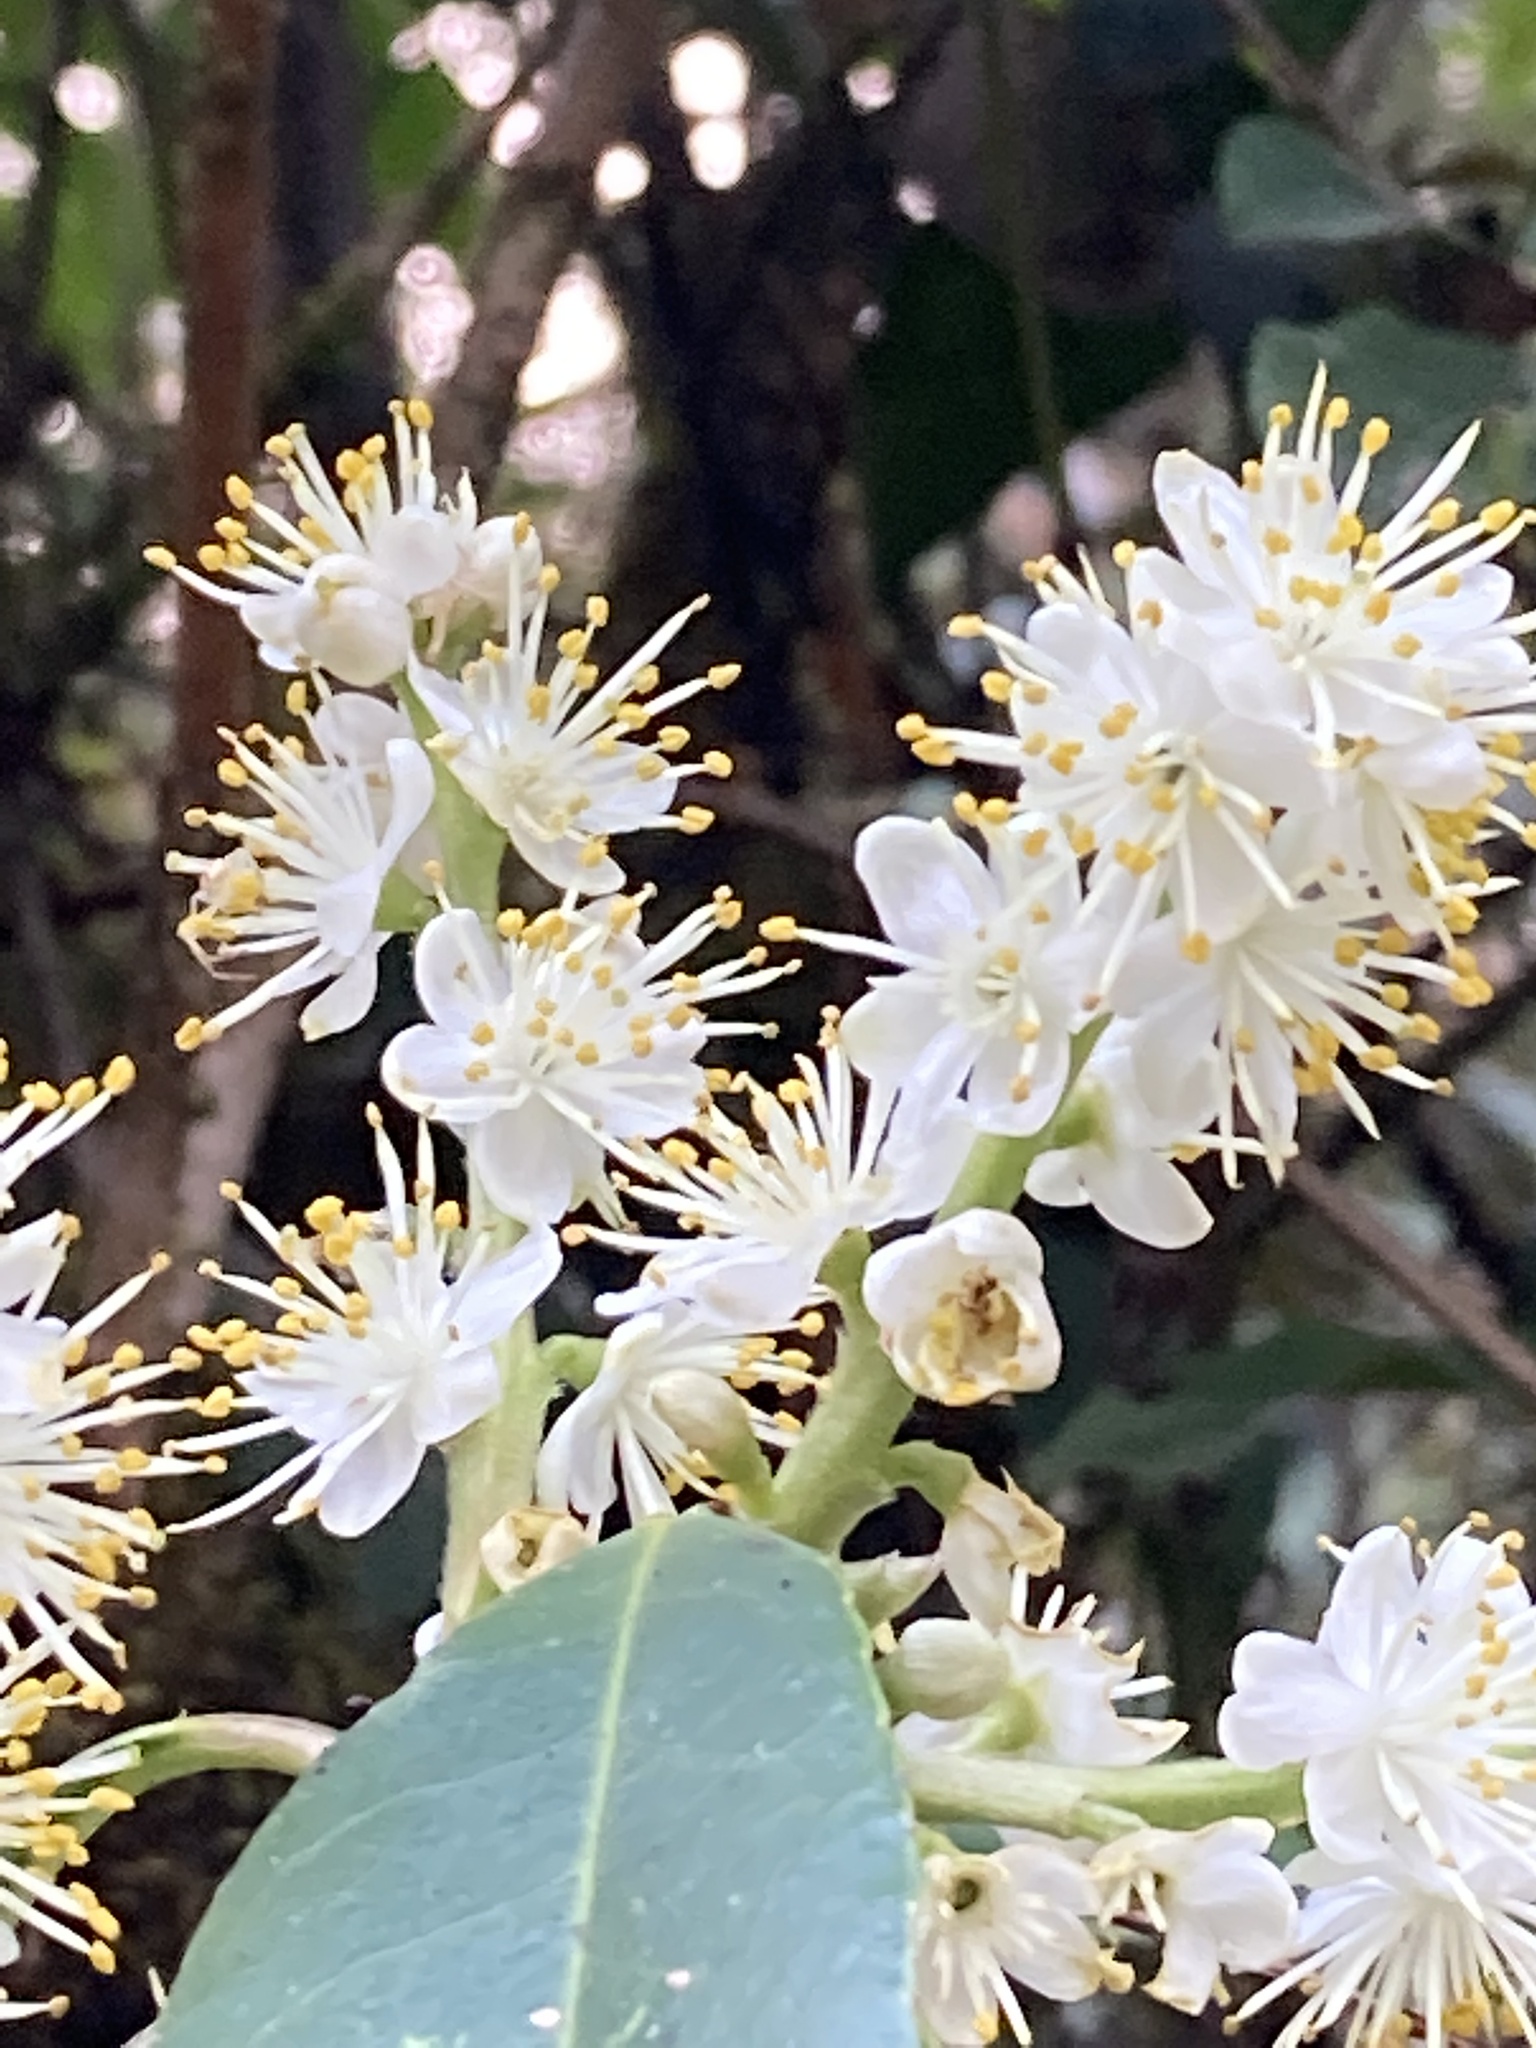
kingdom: Plantae
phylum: Tracheophyta
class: Magnoliopsida
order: Ericales
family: Symplocaceae
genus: Symplocos
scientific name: Symplocos theifolia
